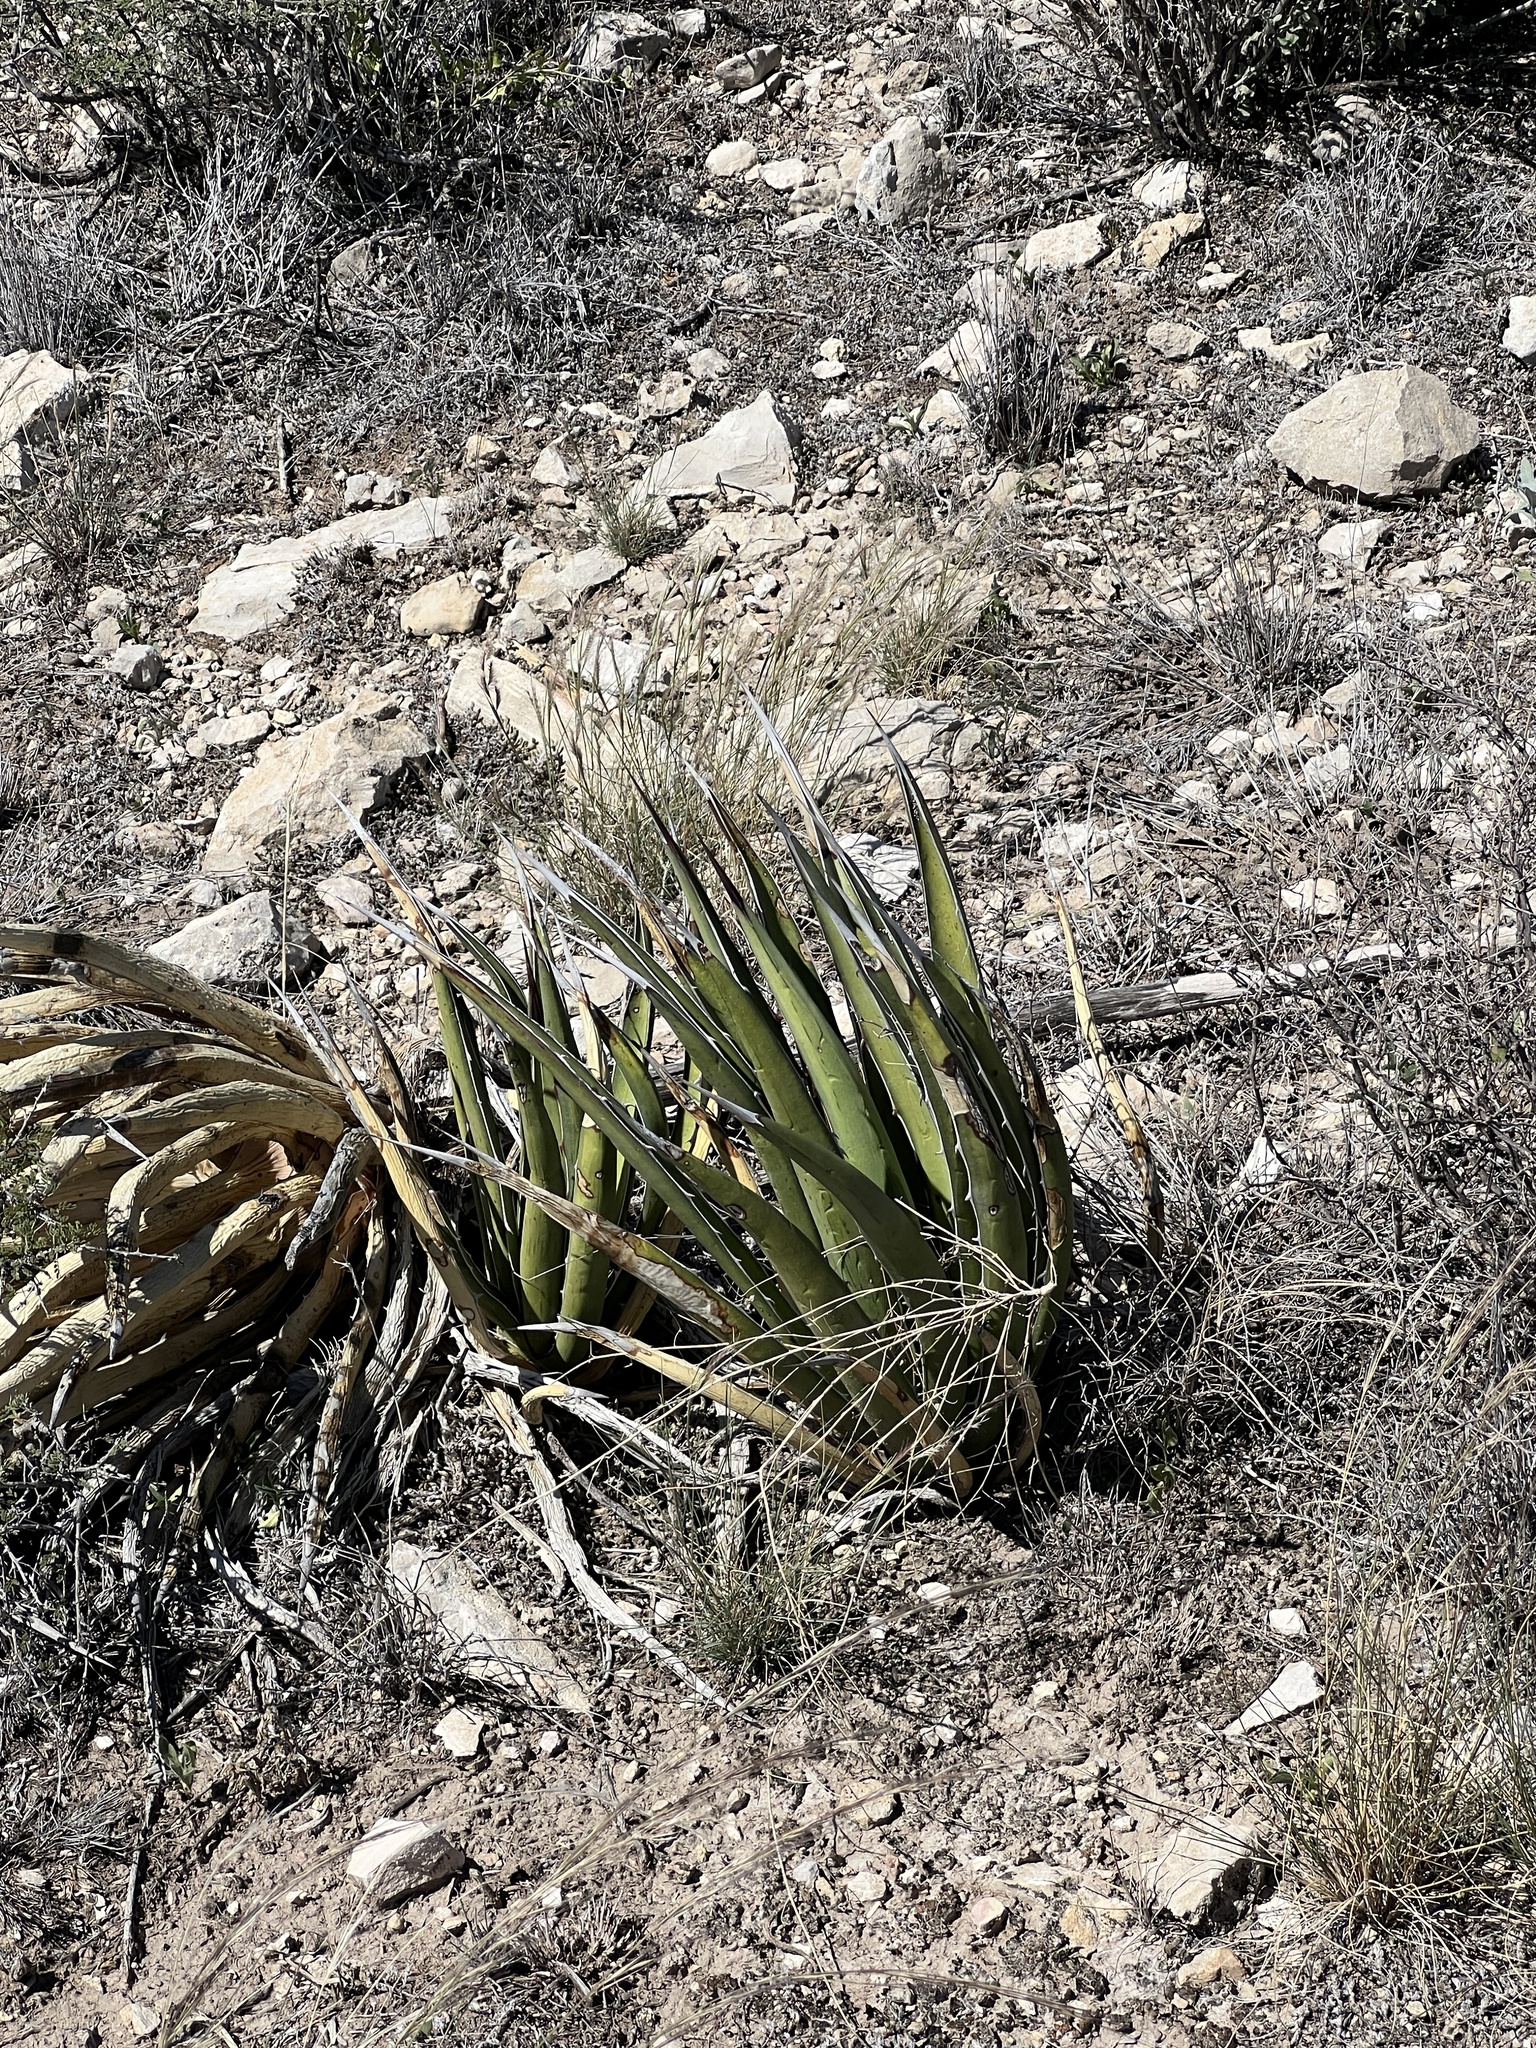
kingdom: Plantae
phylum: Tracheophyta
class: Liliopsida
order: Asparagales
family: Asparagaceae
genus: Agave
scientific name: Agave lechuguilla
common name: Lecheguilla agave
